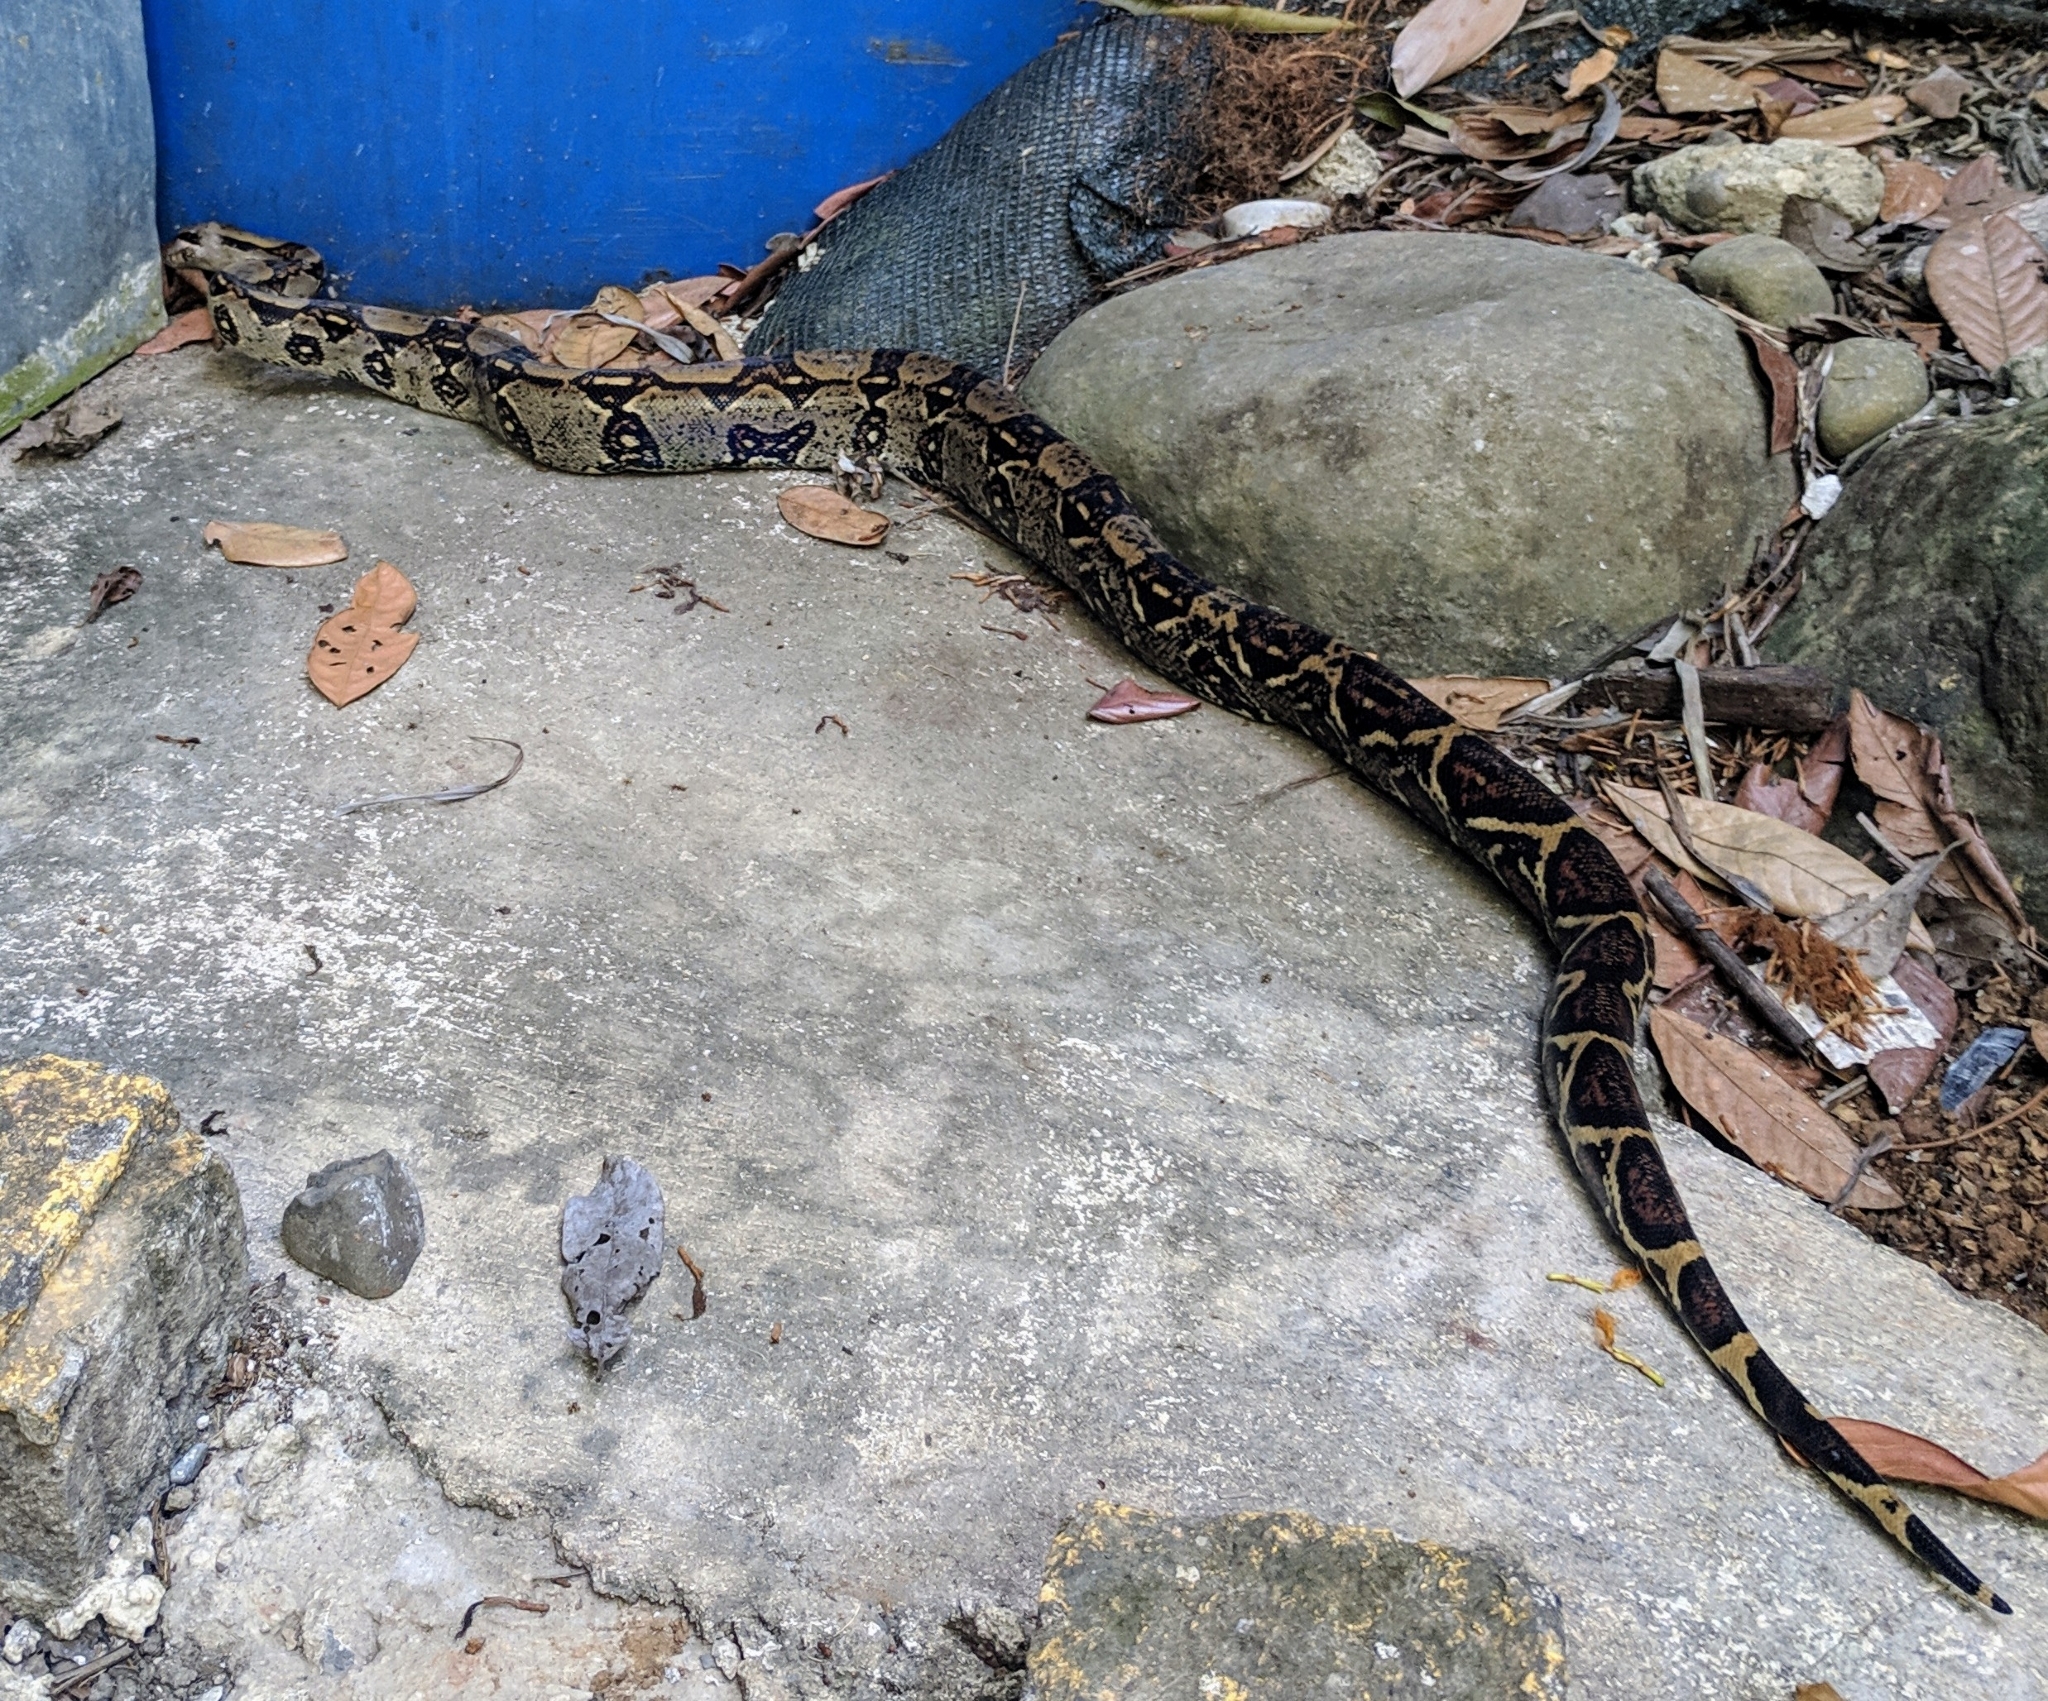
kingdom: Animalia
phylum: Chordata
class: Squamata
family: Boidae
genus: Boa
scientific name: Boa imperator
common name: Central american boa
